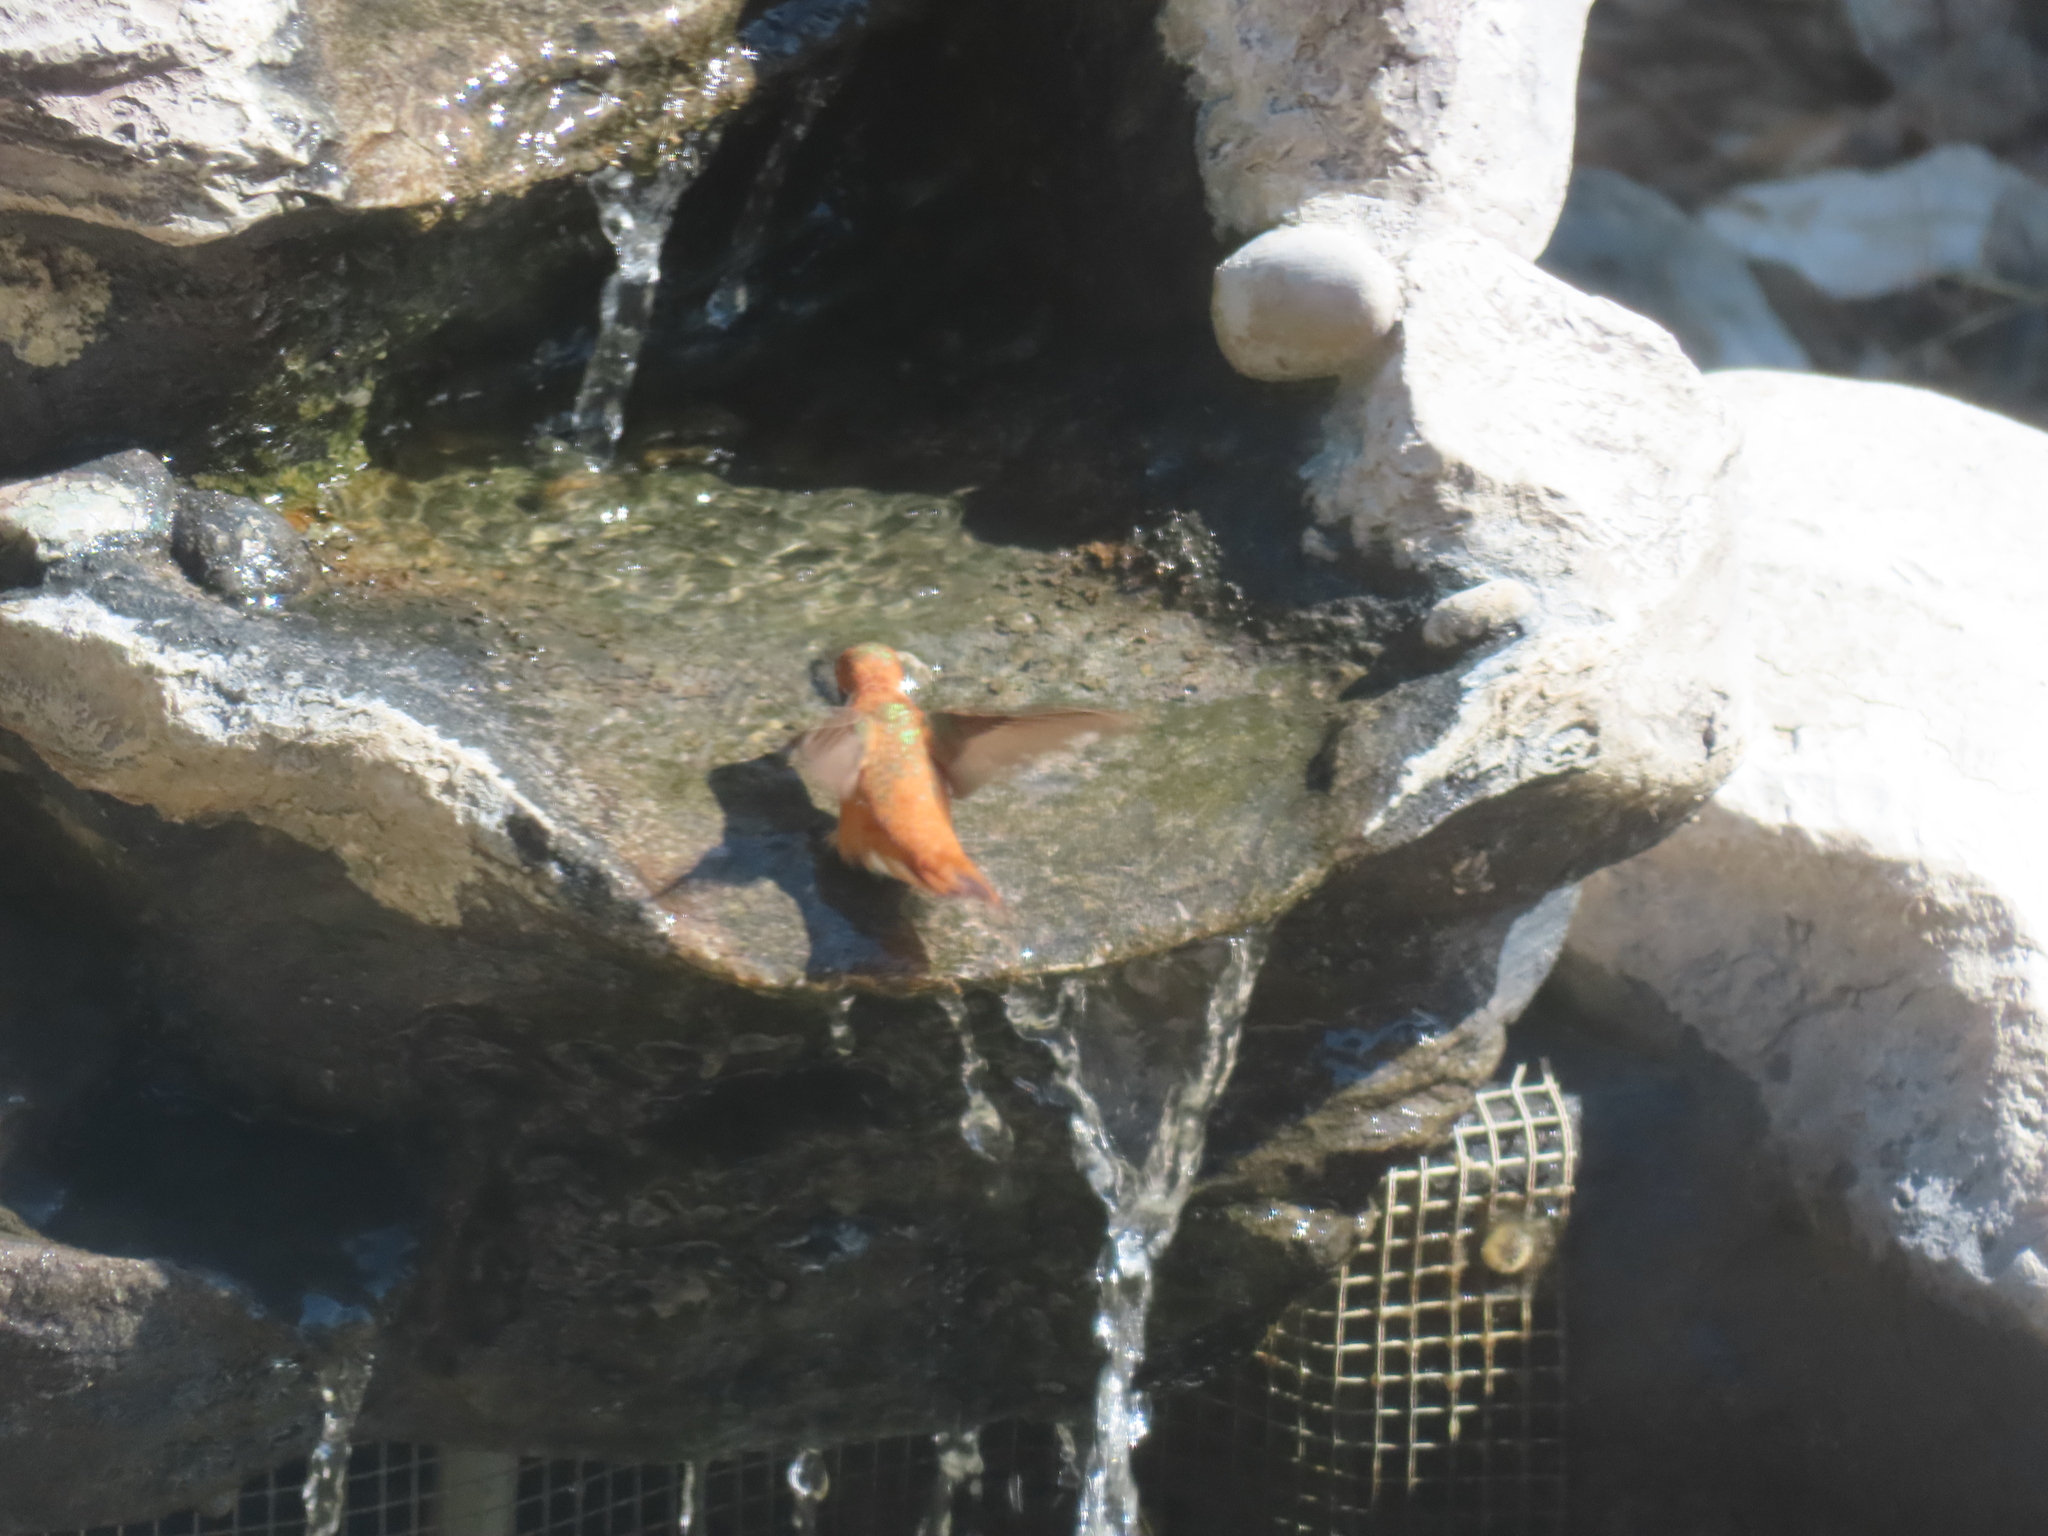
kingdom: Animalia
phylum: Chordata
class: Aves
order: Apodiformes
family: Trochilidae
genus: Selasphorus
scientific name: Selasphorus rufus
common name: Rufous hummingbird
